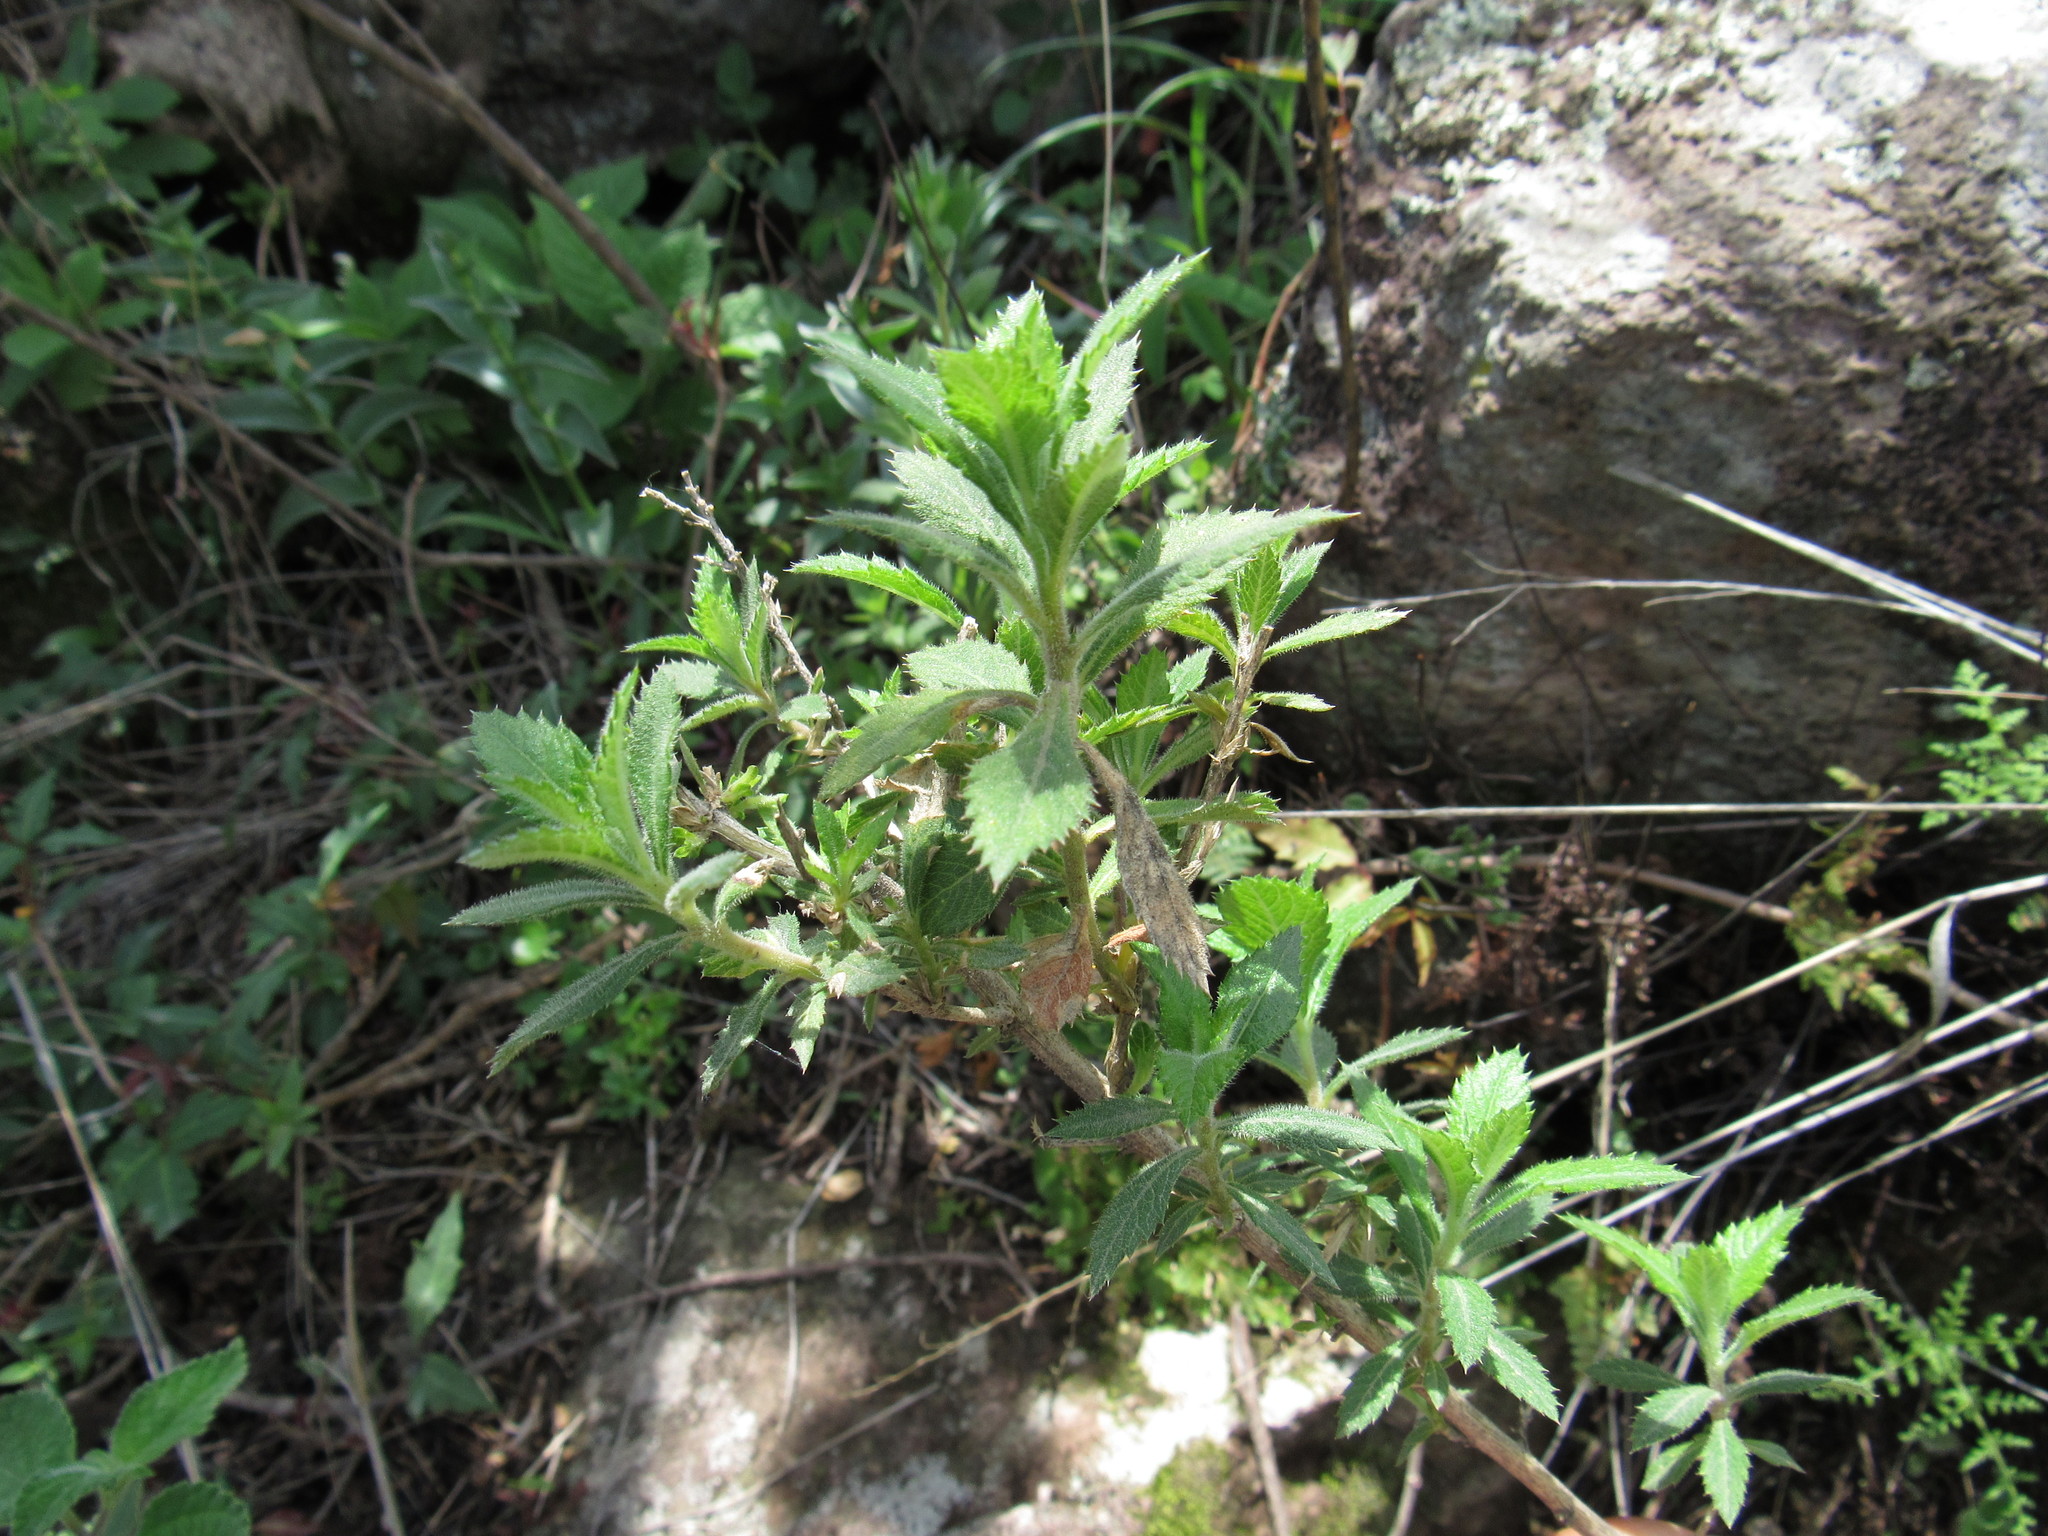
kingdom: Plantae
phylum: Tracheophyta
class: Magnoliopsida
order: Ericales
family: Polemoniaceae
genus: Loeselia
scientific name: Loeselia mexicana
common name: Mexican false calico
